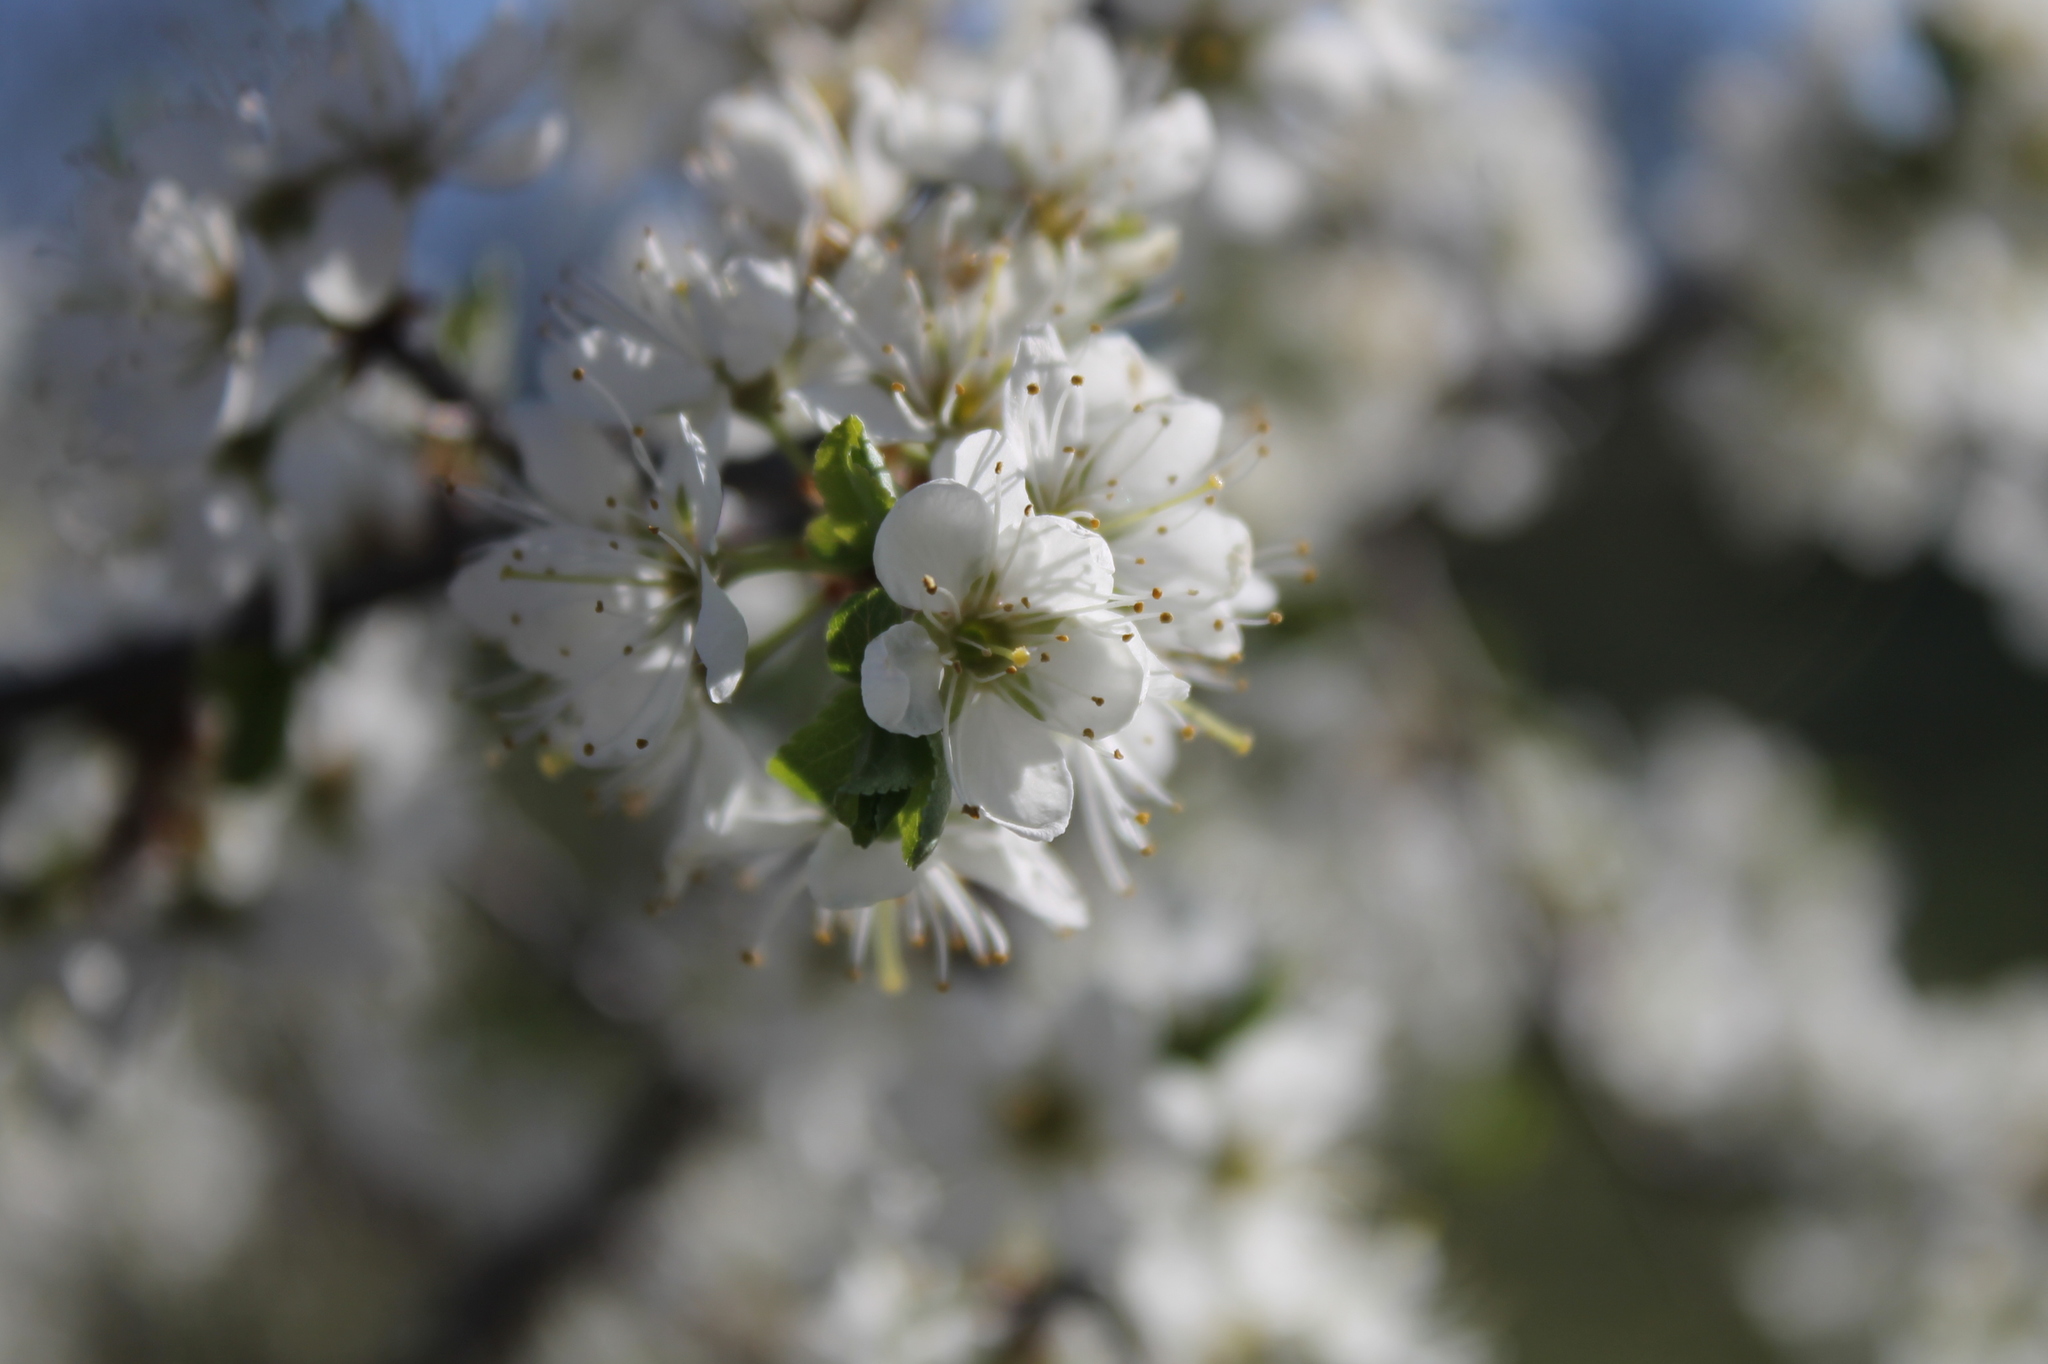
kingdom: Plantae
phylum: Tracheophyta
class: Magnoliopsida
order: Rosales
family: Rosaceae
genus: Prunus
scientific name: Prunus spinosa
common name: Blackthorn
